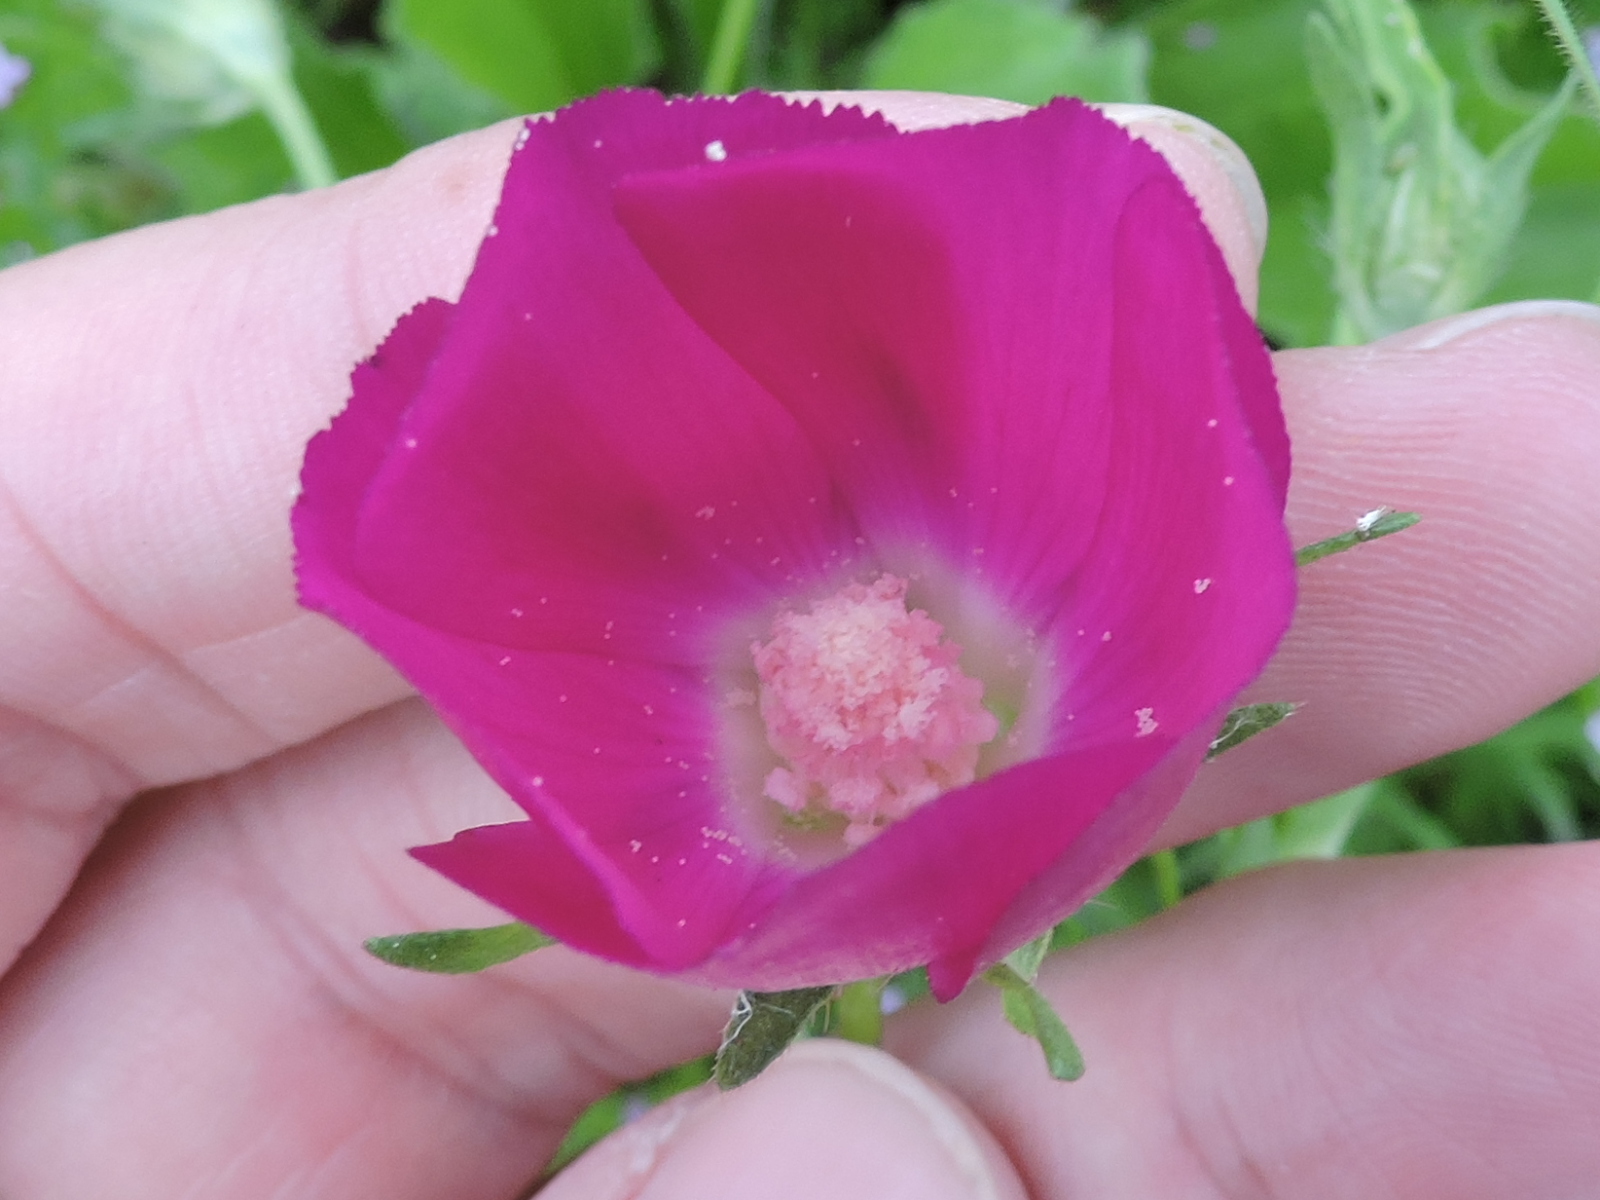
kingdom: Plantae
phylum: Tracheophyta
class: Magnoliopsida
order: Malvales
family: Malvaceae
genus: Callirhoe
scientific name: Callirhoe involucrata
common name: Purple poppy-mallow
